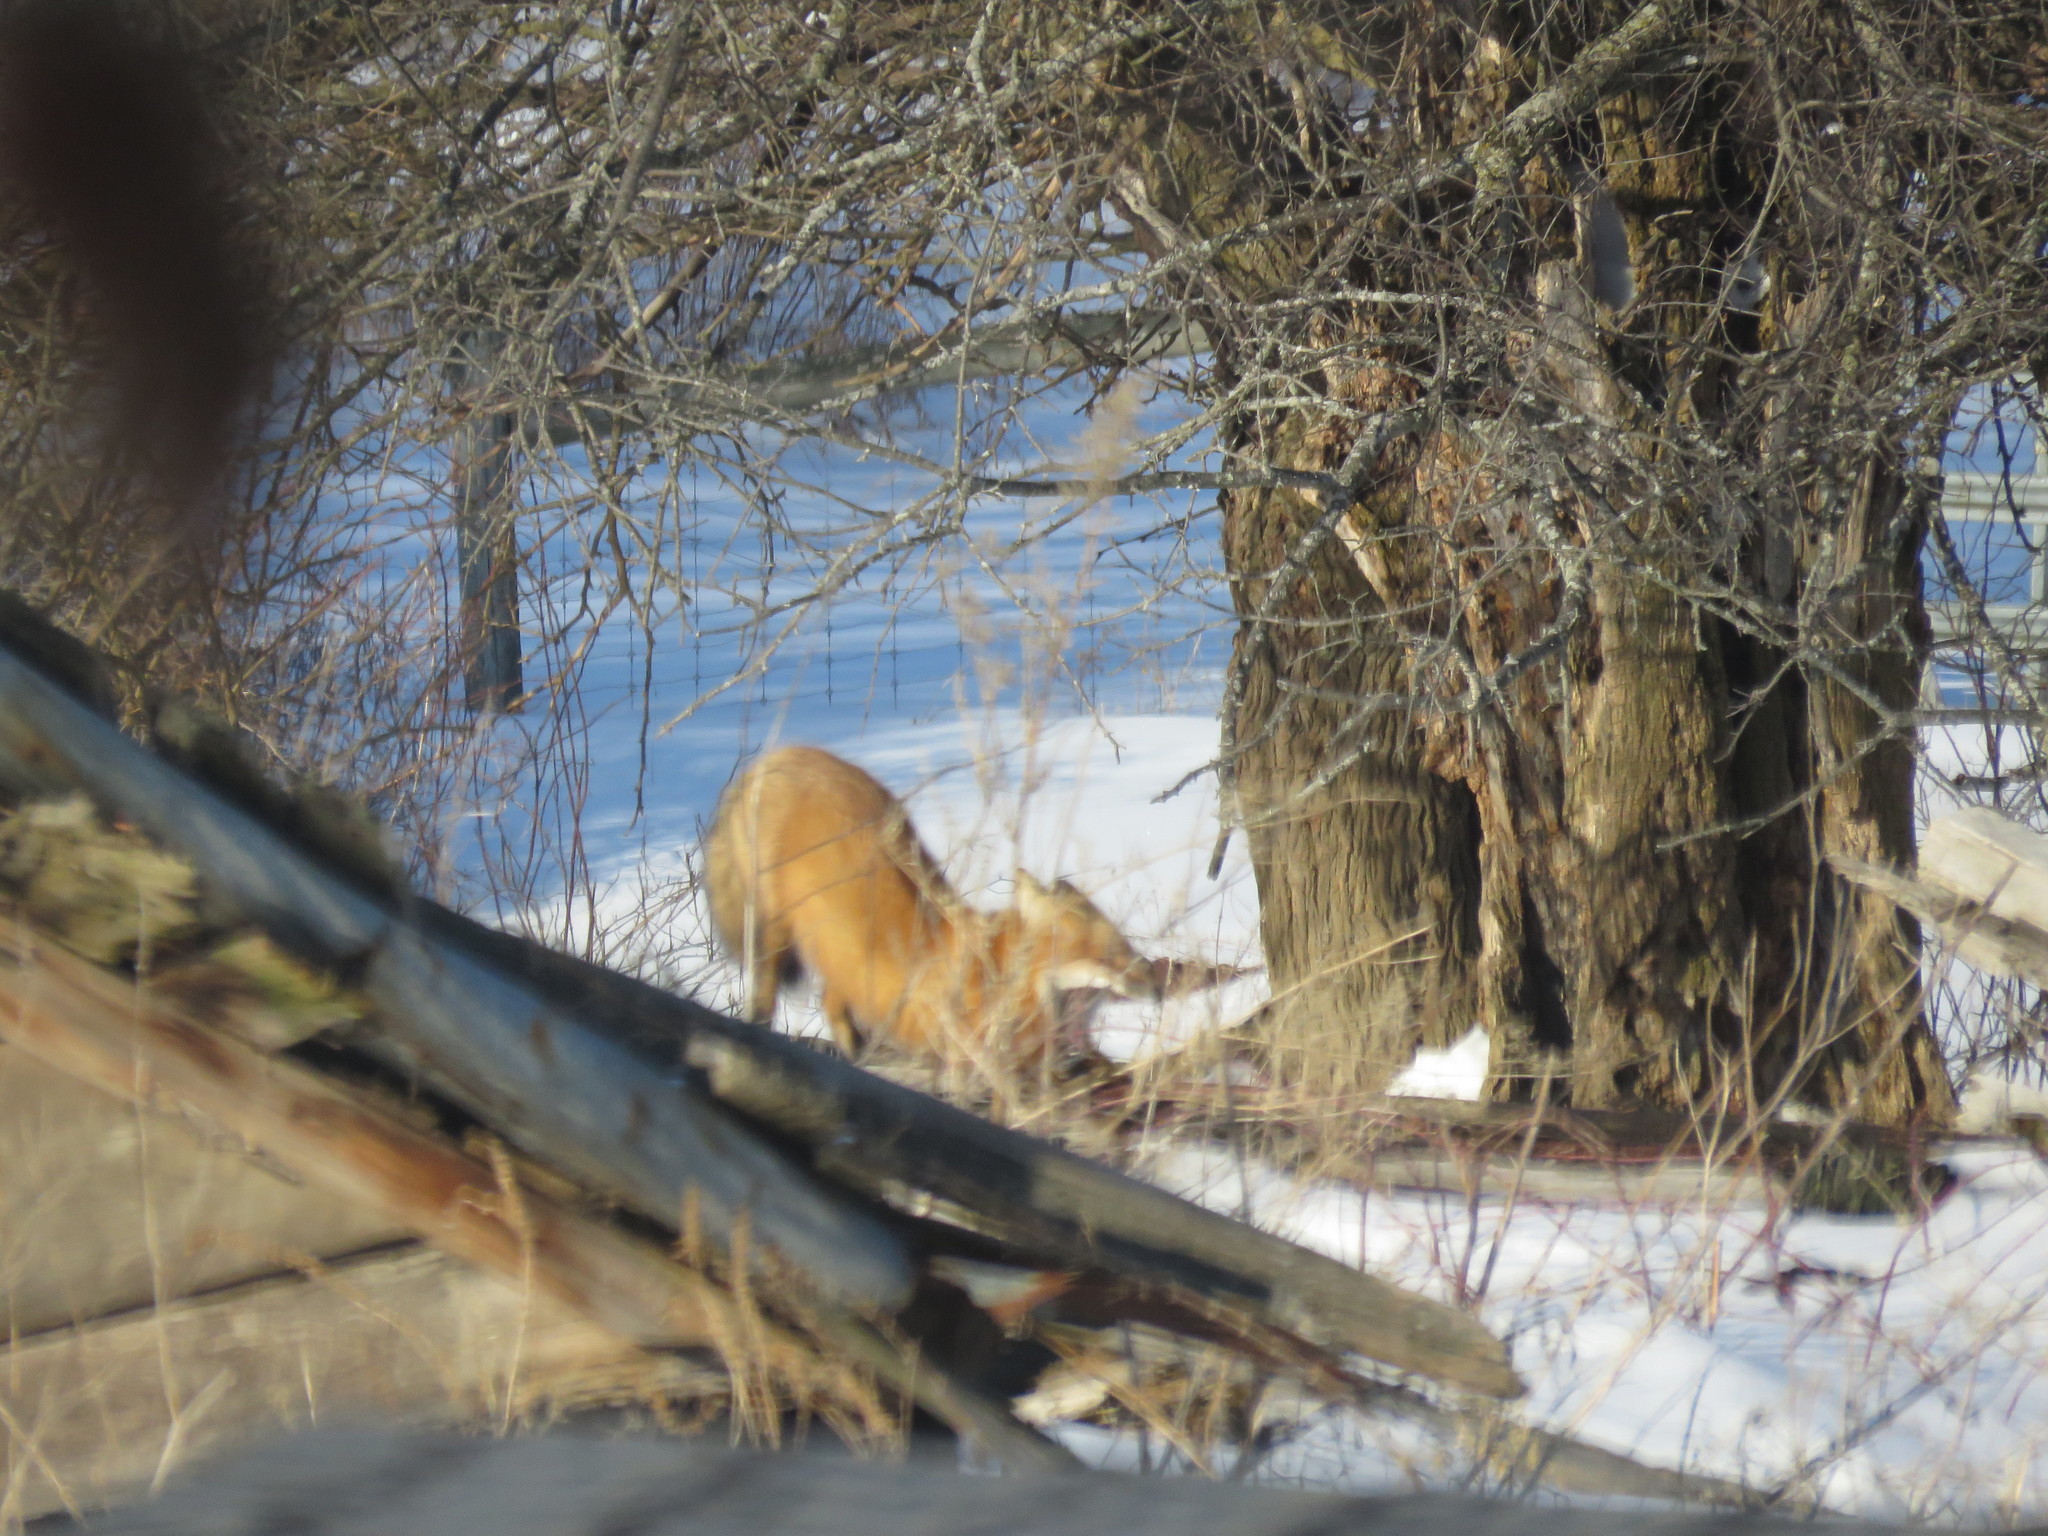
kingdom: Animalia
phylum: Chordata
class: Mammalia
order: Carnivora
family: Canidae
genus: Vulpes
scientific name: Vulpes vulpes
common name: Red fox
